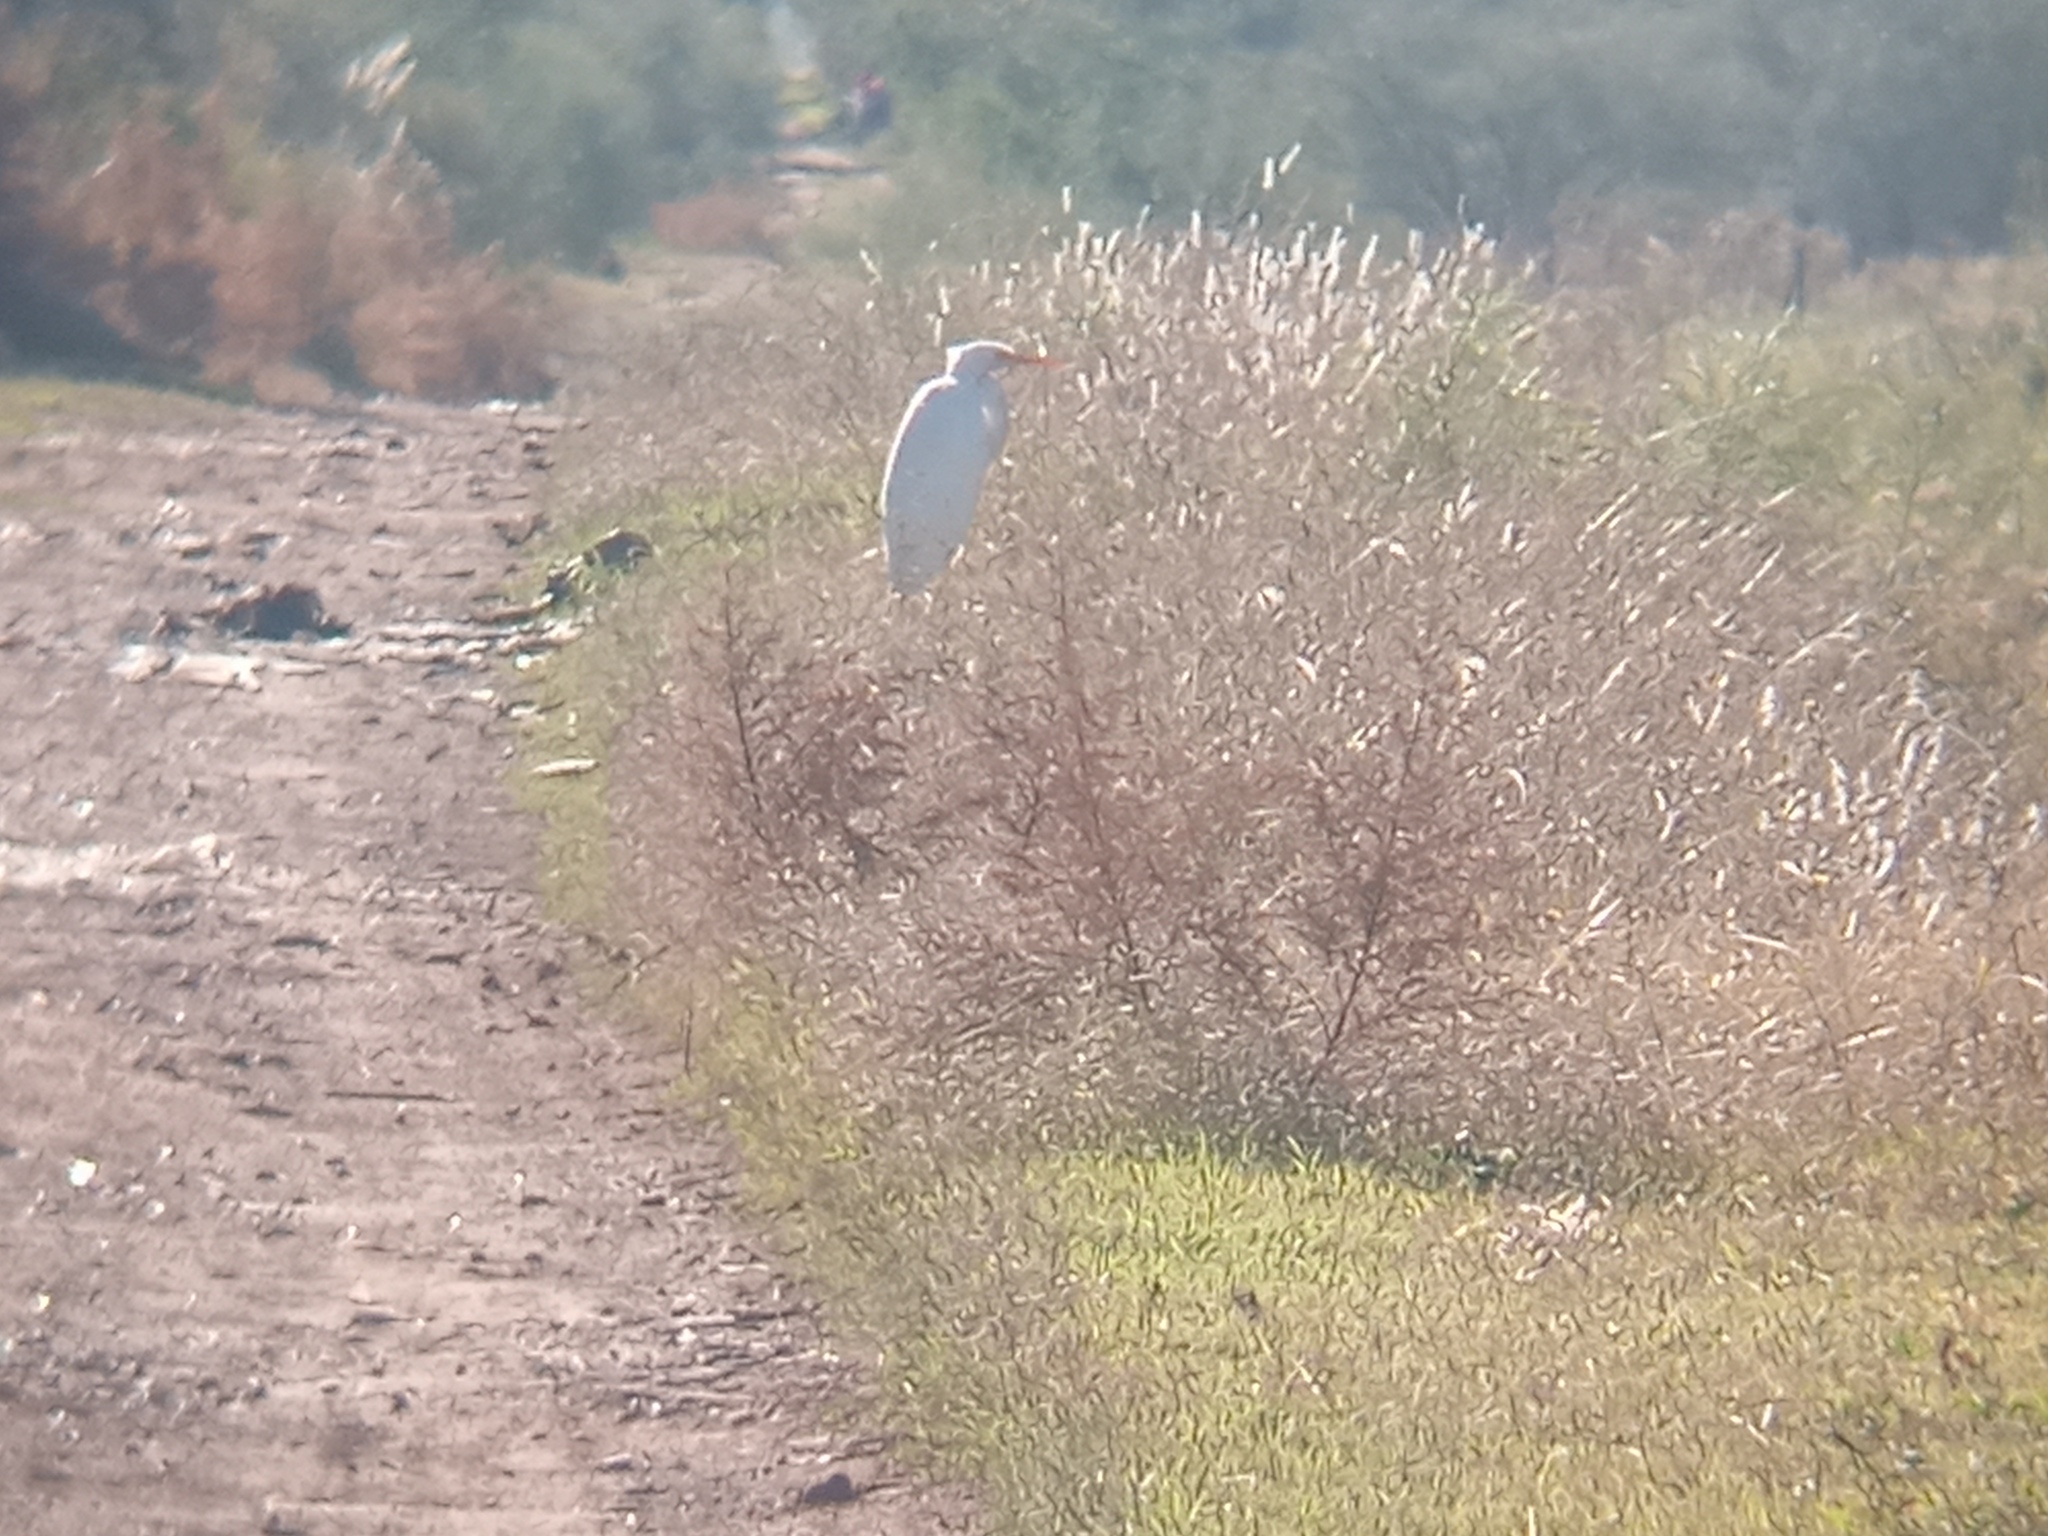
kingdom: Animalia
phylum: Chordata
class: Aves
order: Pelecaniformes
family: Ardeidae
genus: Ardea
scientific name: Ardea alba
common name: Great egret
